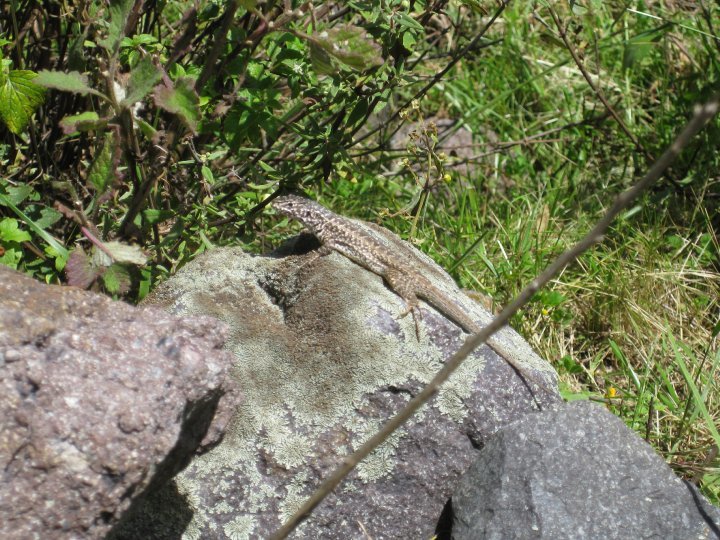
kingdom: Animalia
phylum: Chordata
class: Squamata
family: Tropiduridae
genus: Stenocercus
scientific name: Stenocercus ornatissimus
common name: Lesser ornate whorltail iguana
